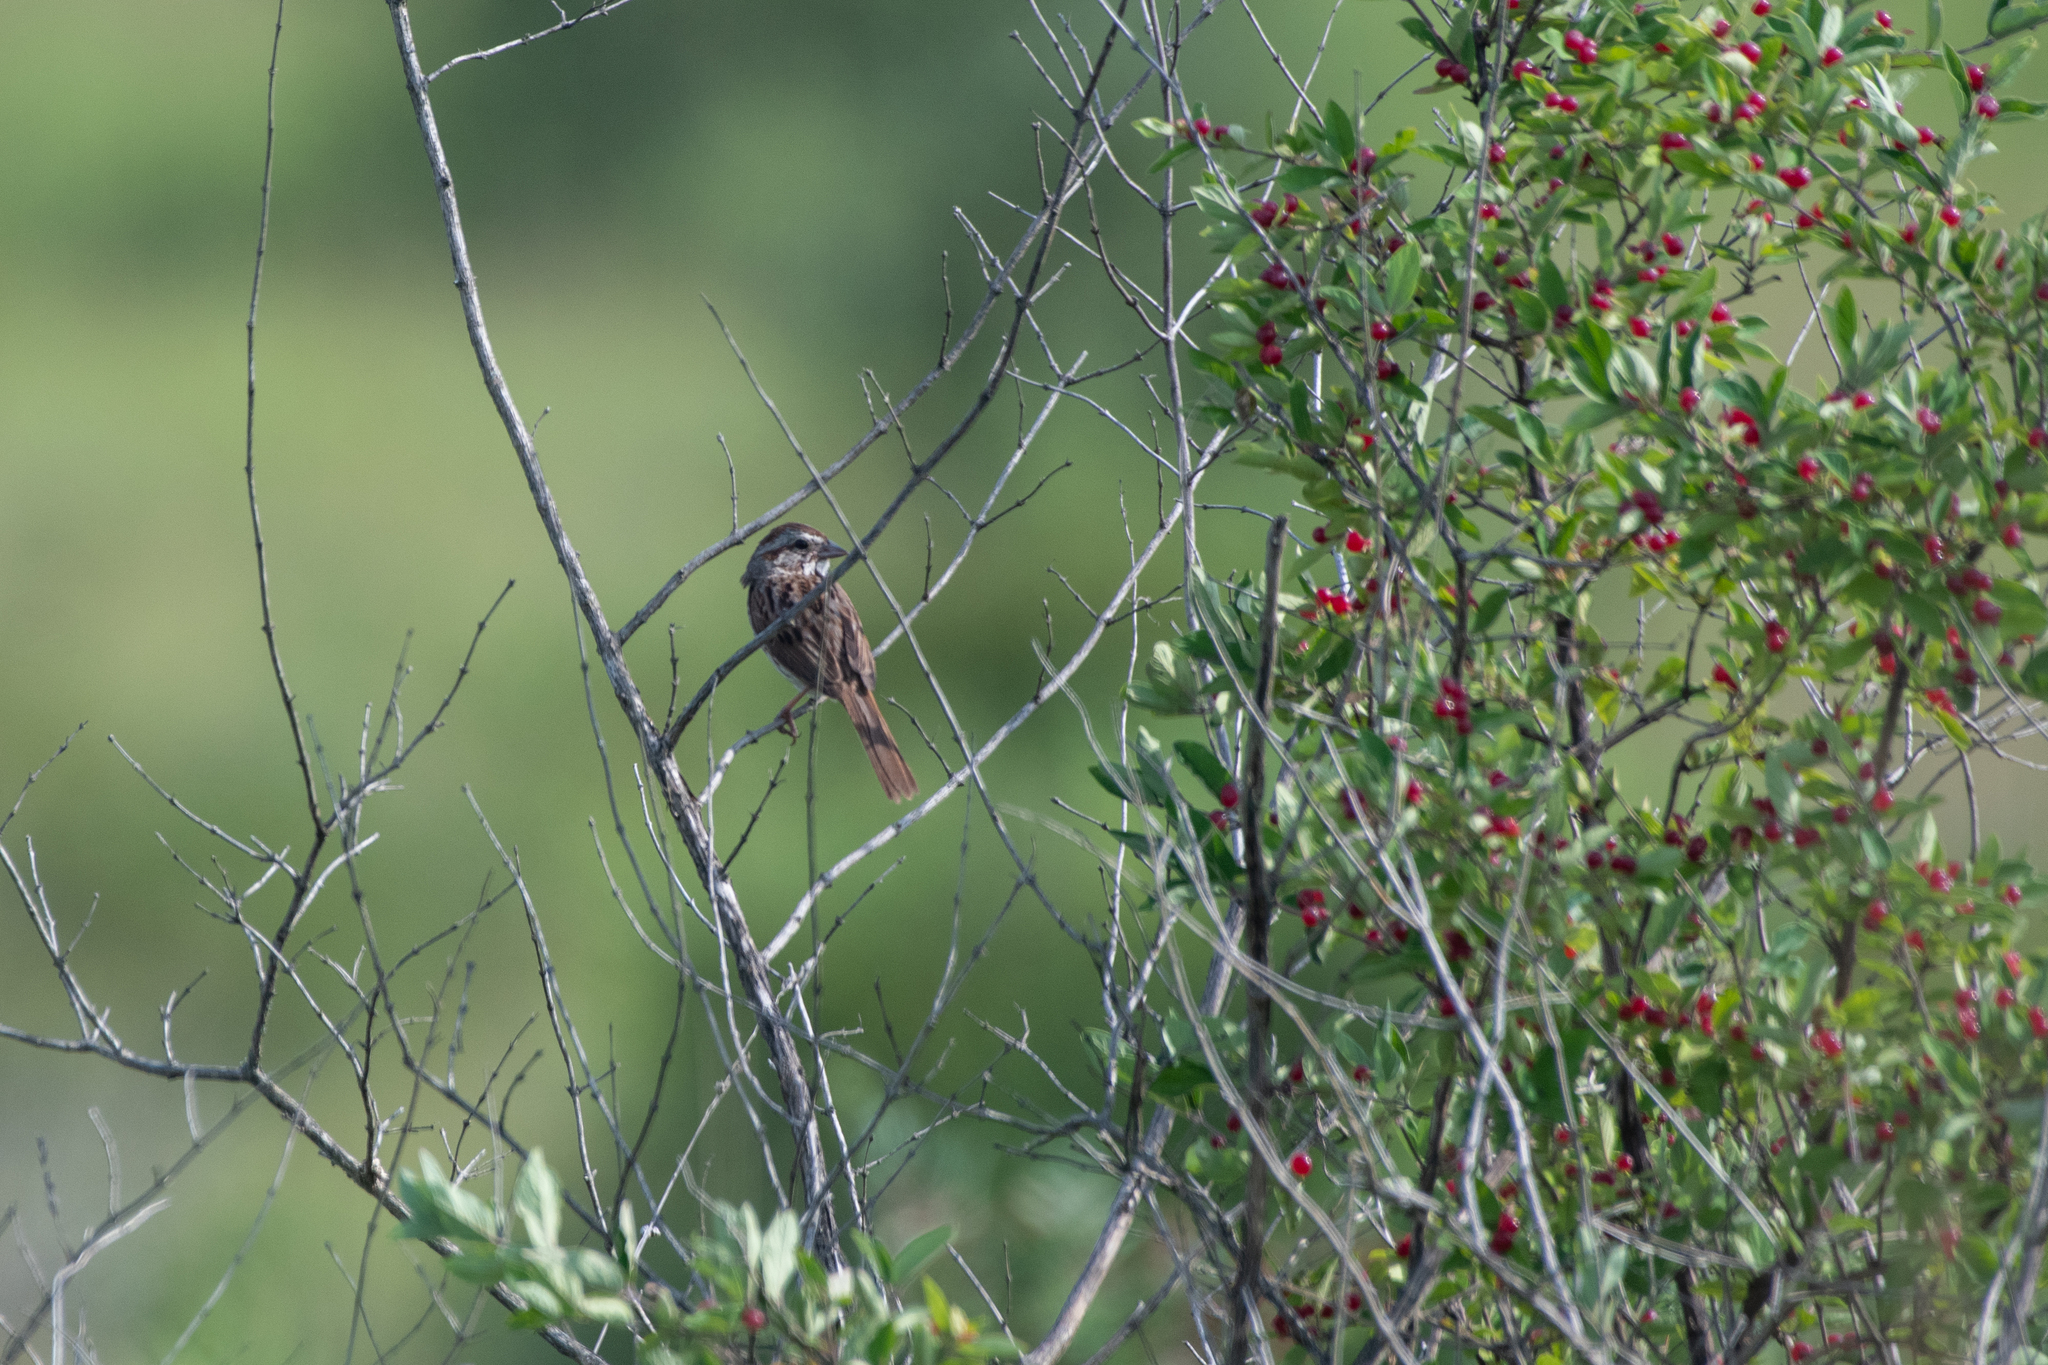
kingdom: Animalia
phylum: Chordata
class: Aves
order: Passeriformes
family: Passerellidae
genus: Melospiza
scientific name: Melospiza melodia
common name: Song sparrow
